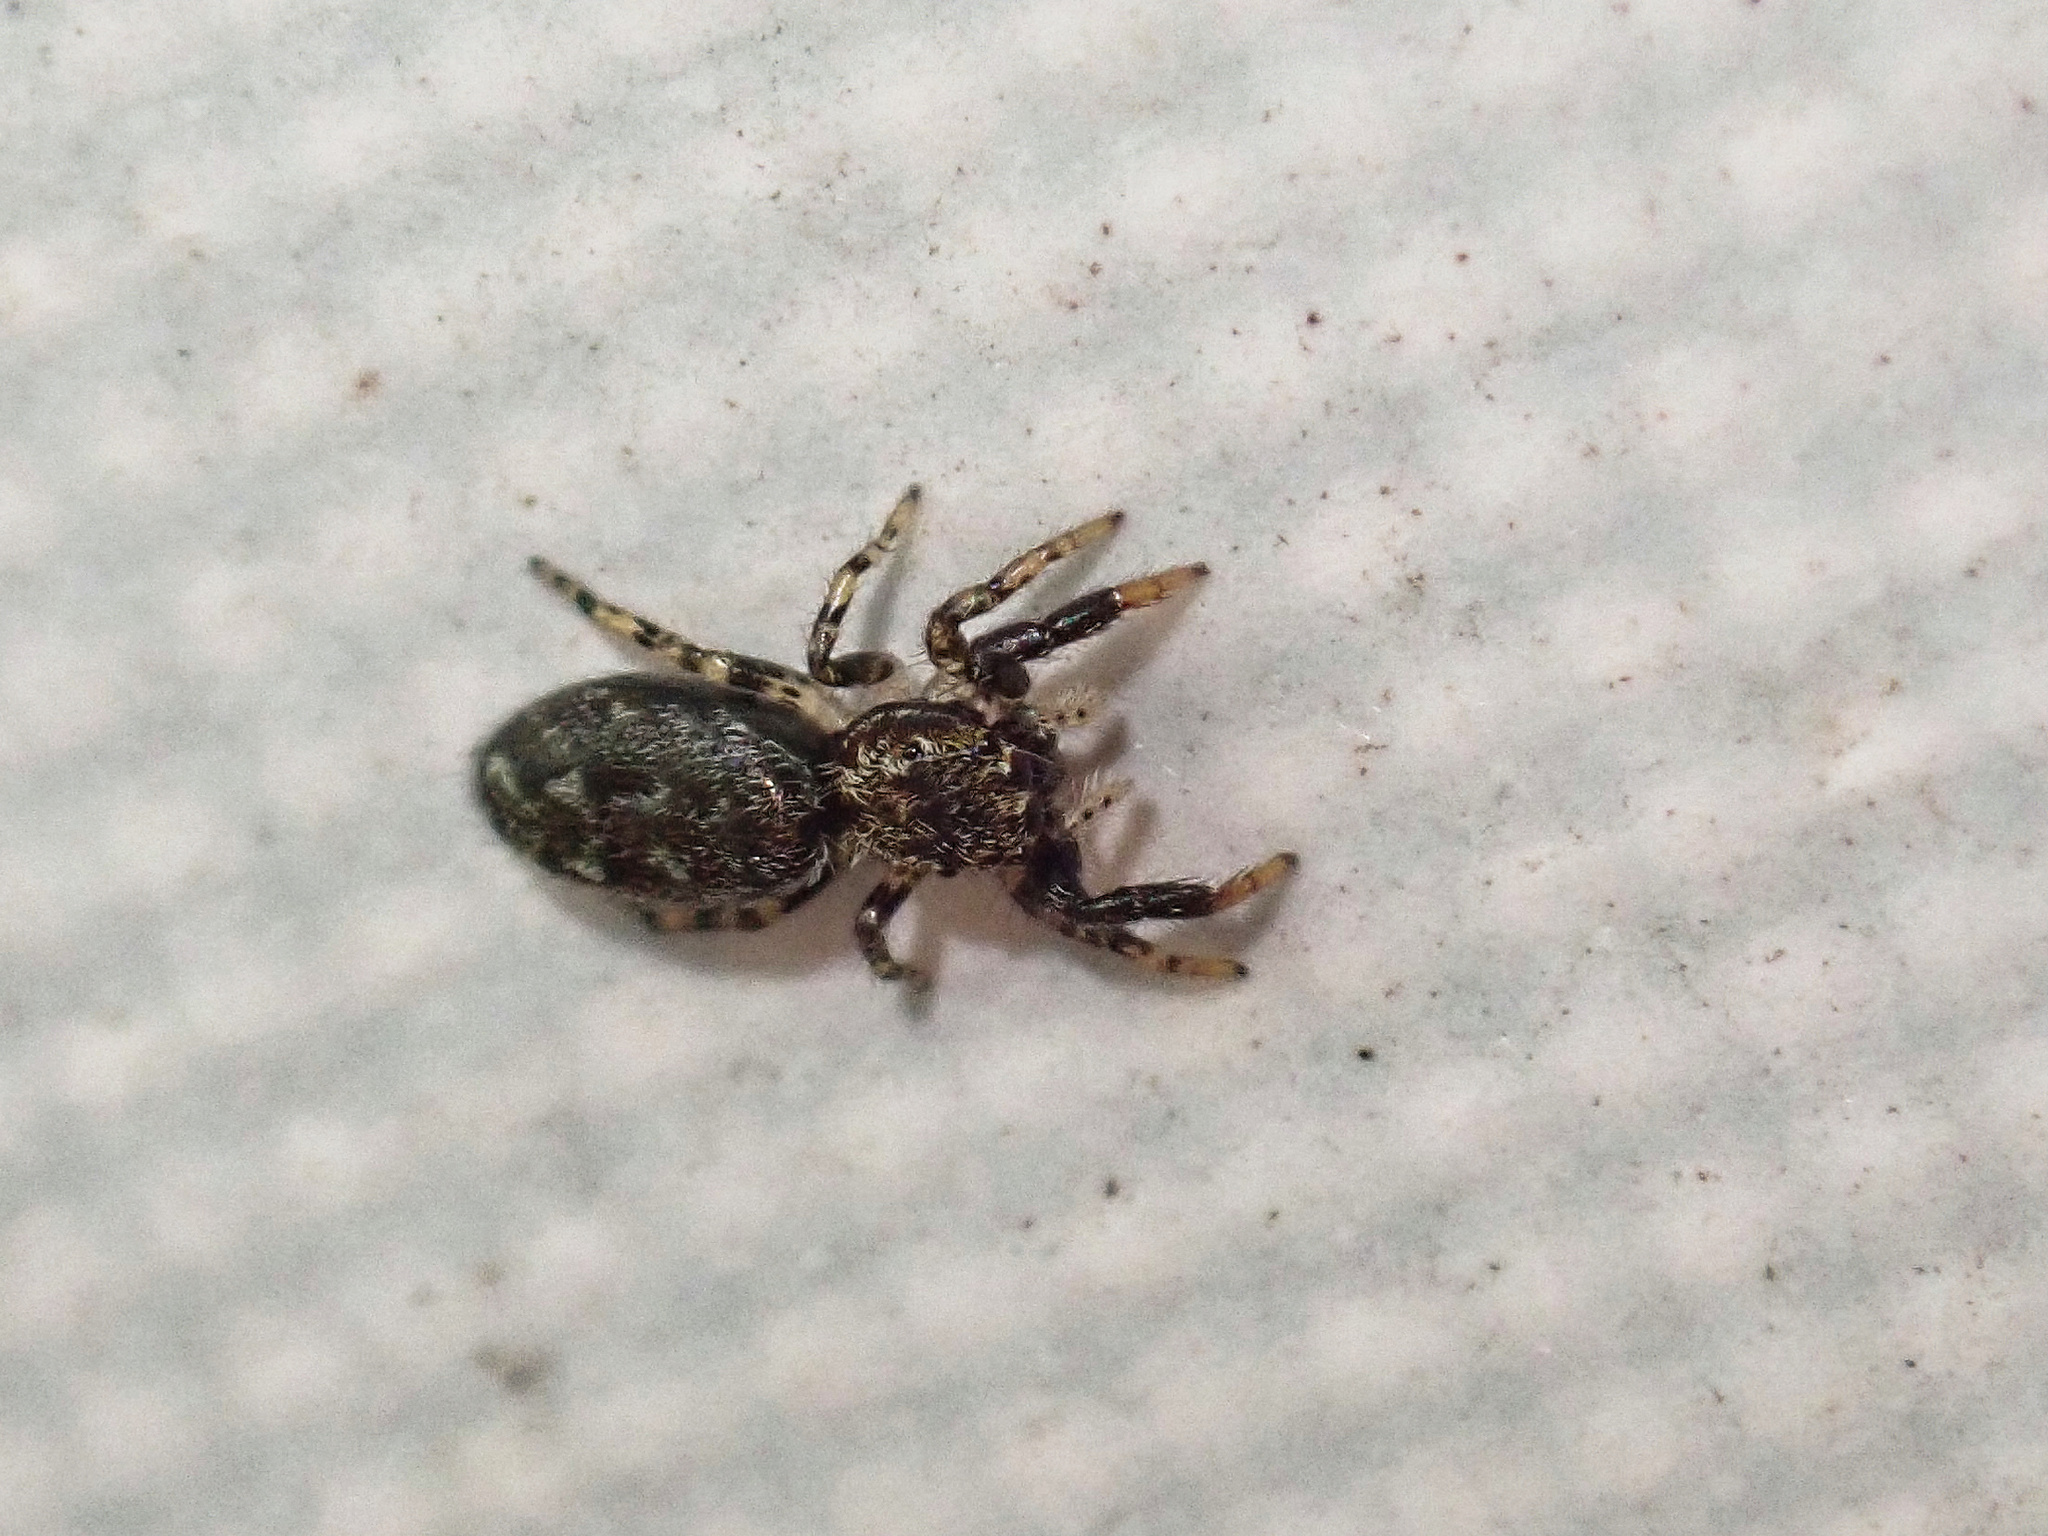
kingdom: Animalia
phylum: Arthropoda
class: Arachnida
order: Araneae
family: Salticidae
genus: Marpissa
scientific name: Marpissa muscosa
